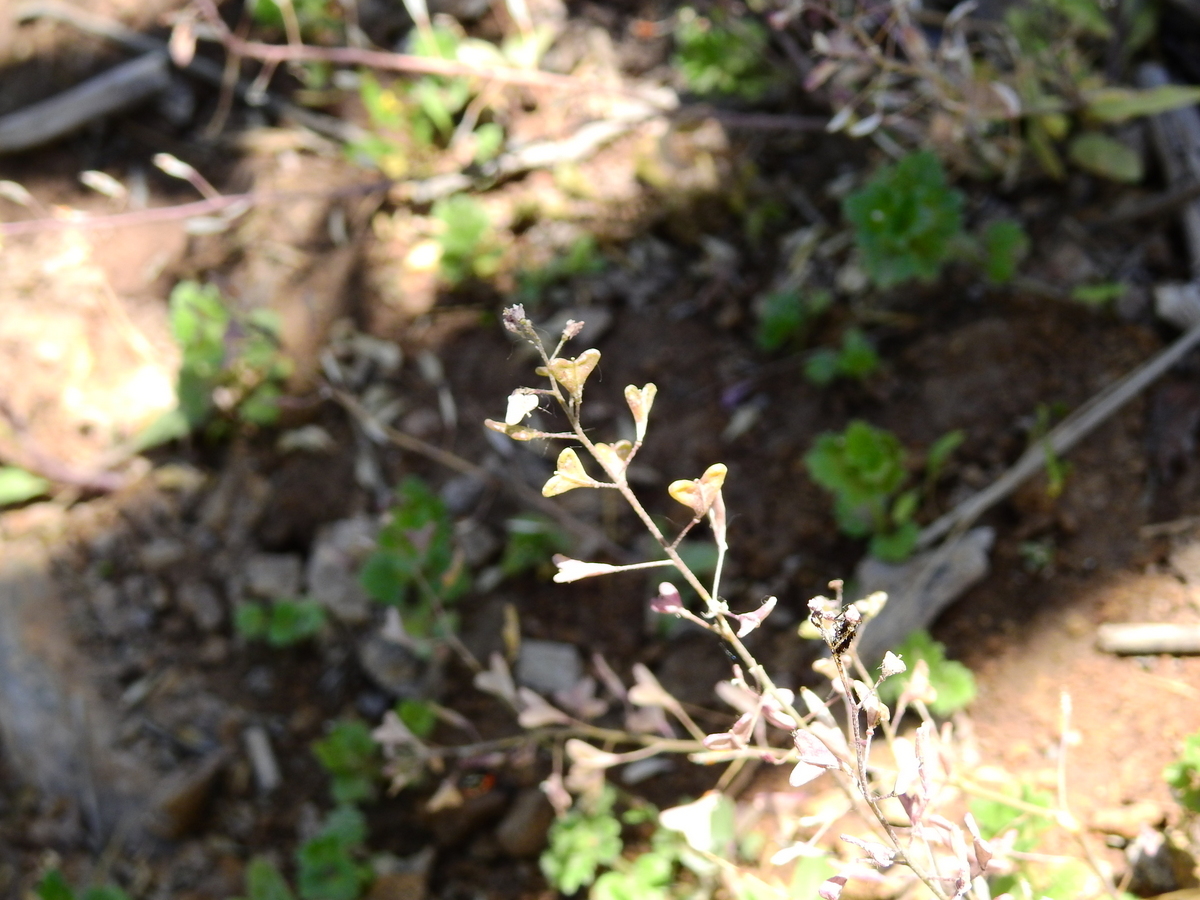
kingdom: Plantae
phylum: Tracheophyta
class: Magnoliopsida
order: Brassicales
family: Brassicaceae
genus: Capsella
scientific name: Capsella bursa-pastoris
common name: Shepherd's purse
